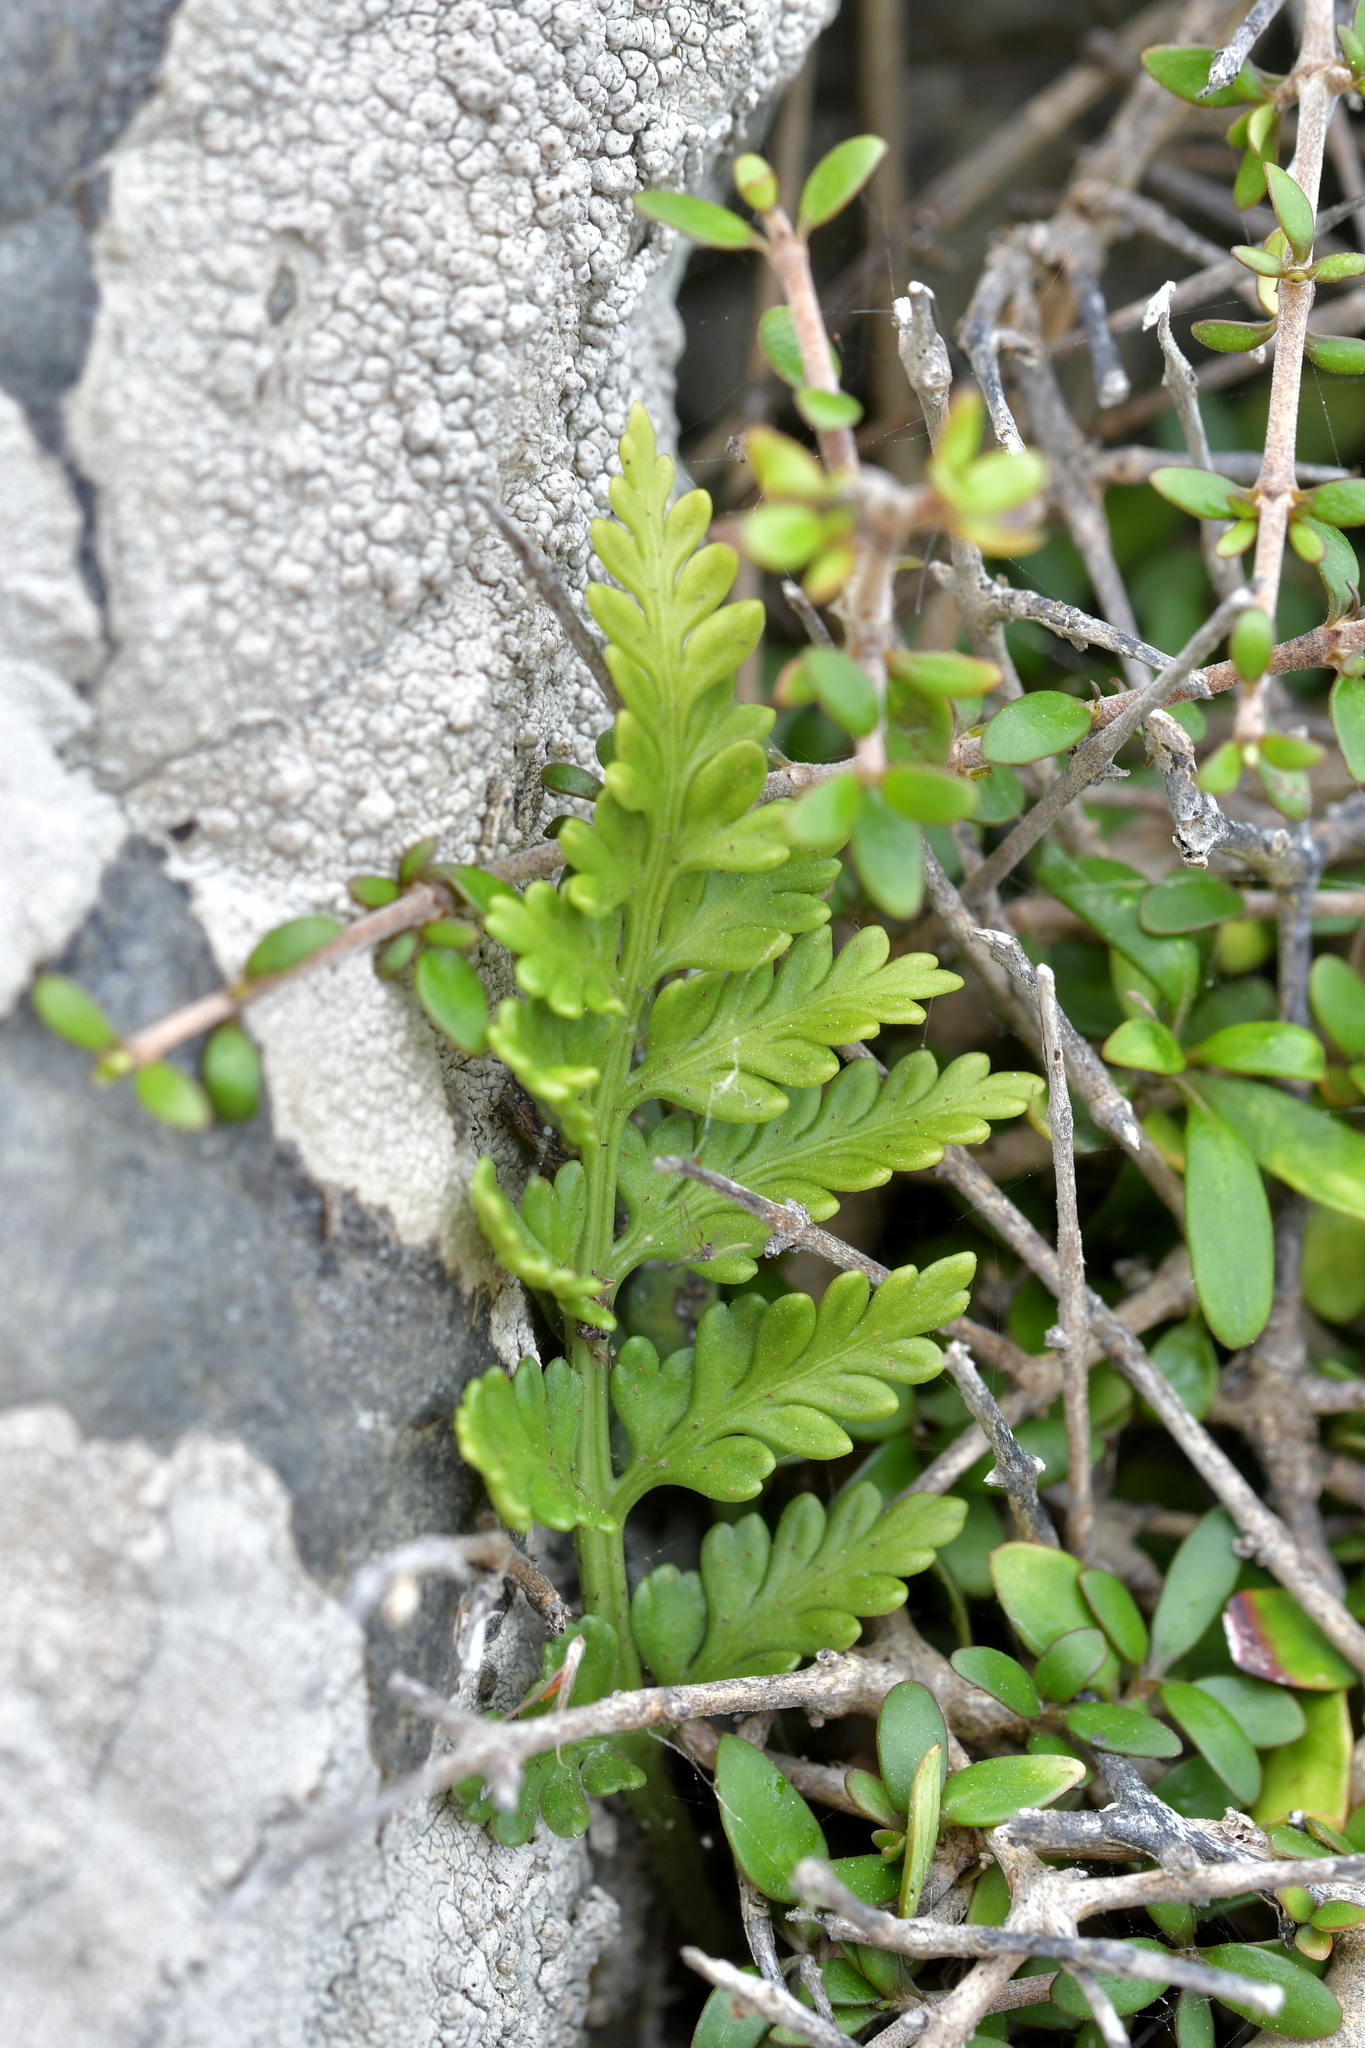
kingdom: Plantae
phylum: Tracheophyta
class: Polypodiopsida
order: Polypodiales
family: Aspleniaceae
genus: Asplenium
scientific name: Asplenium appendiculatum
